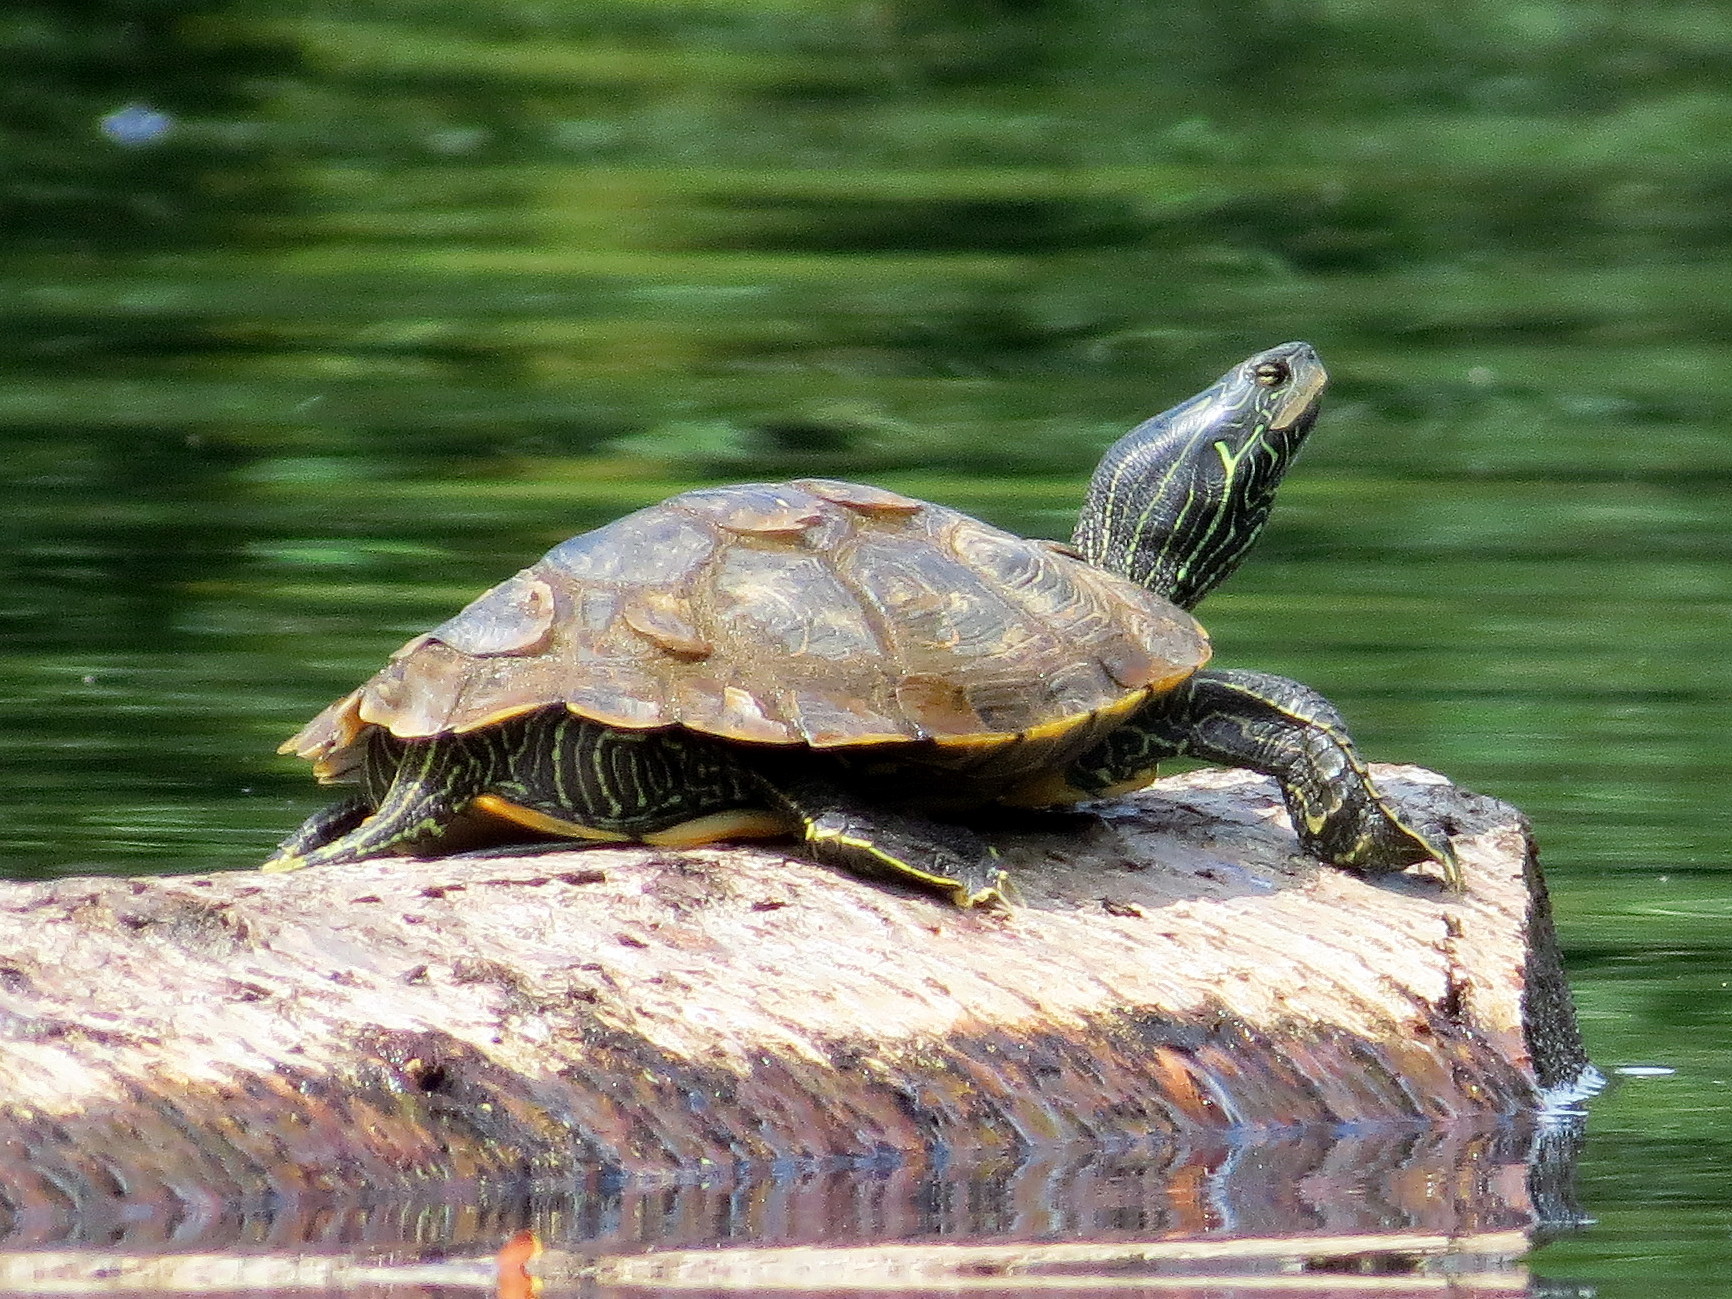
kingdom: Animalia
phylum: Chordata
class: Testudines
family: Emydidae
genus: Graptemys
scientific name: Graptemys geographica
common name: Common map turtle
